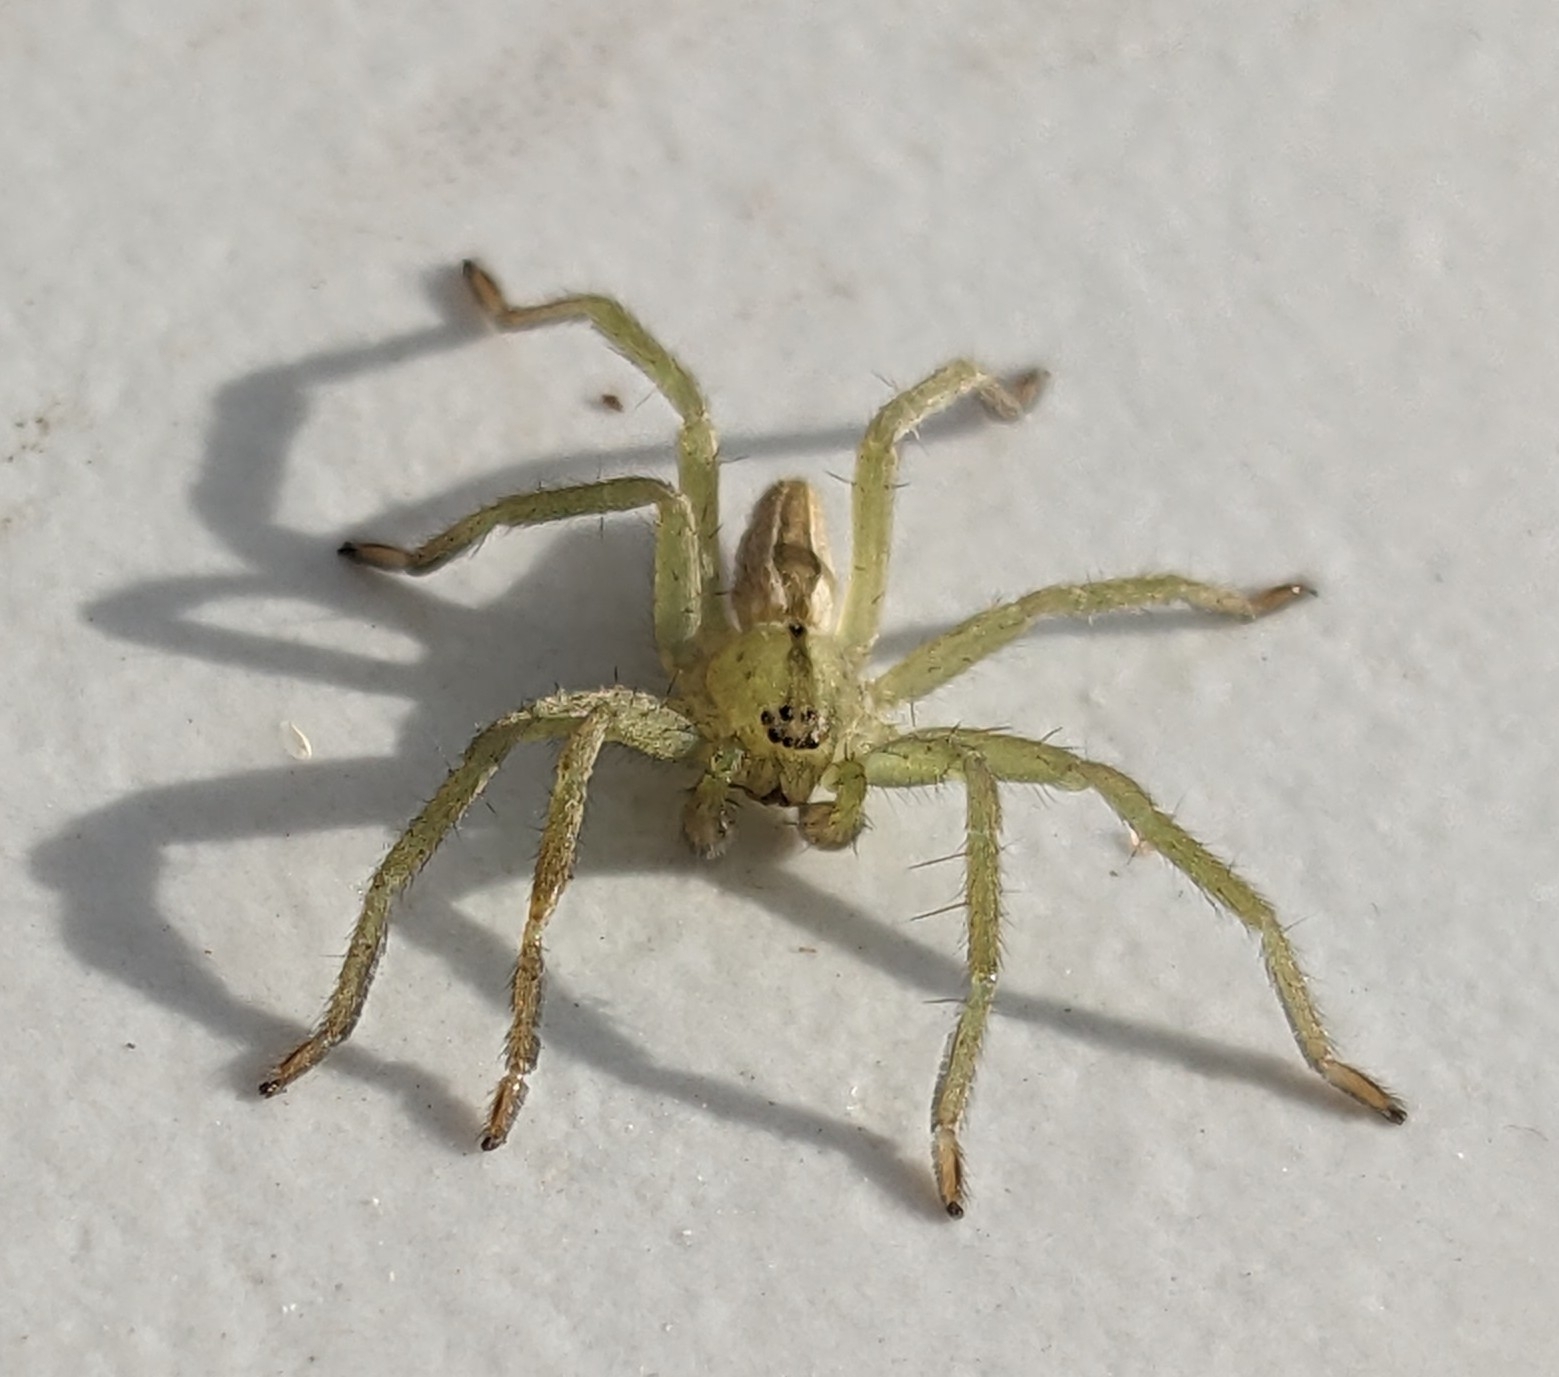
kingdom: Animalia
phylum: Arthropoda
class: Arachnida
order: Araneae
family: Sparassidae
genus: Micrommata
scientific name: Micrommata ligurina
